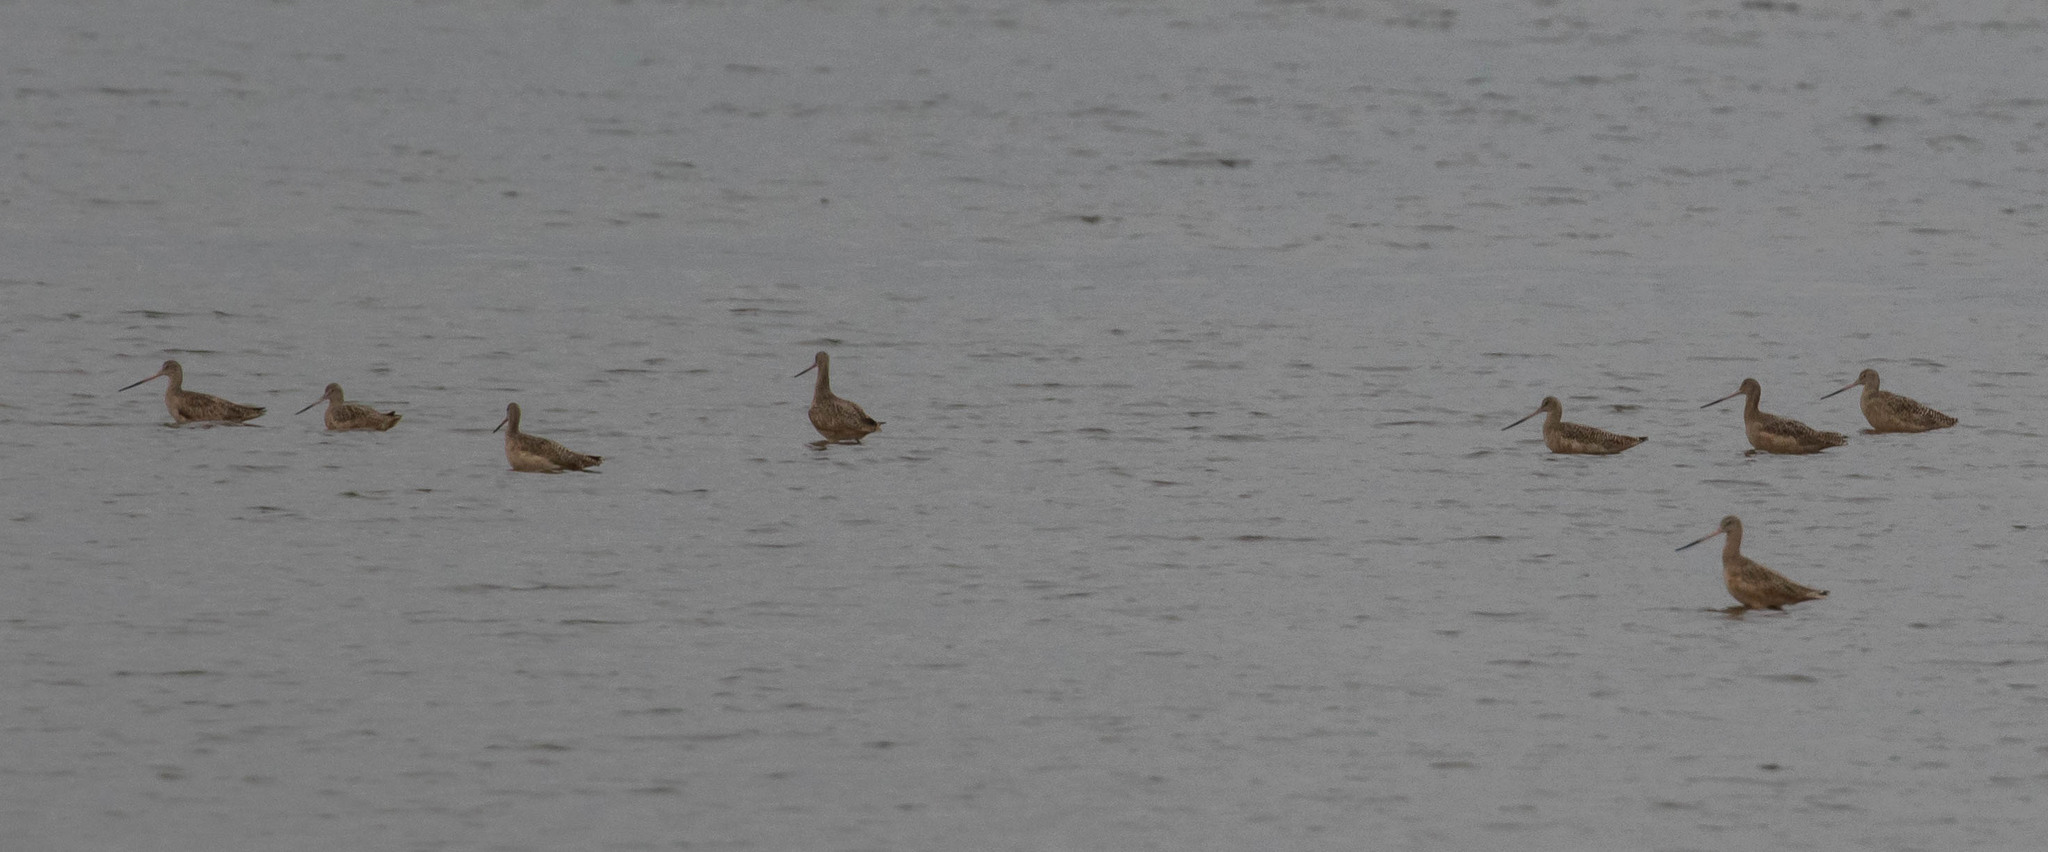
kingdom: Animalia
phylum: Chordata
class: Aves
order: Charadriiformes
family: Scolopacidae
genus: Limosa
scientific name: Limosa fedoa
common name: Marbled godwit
